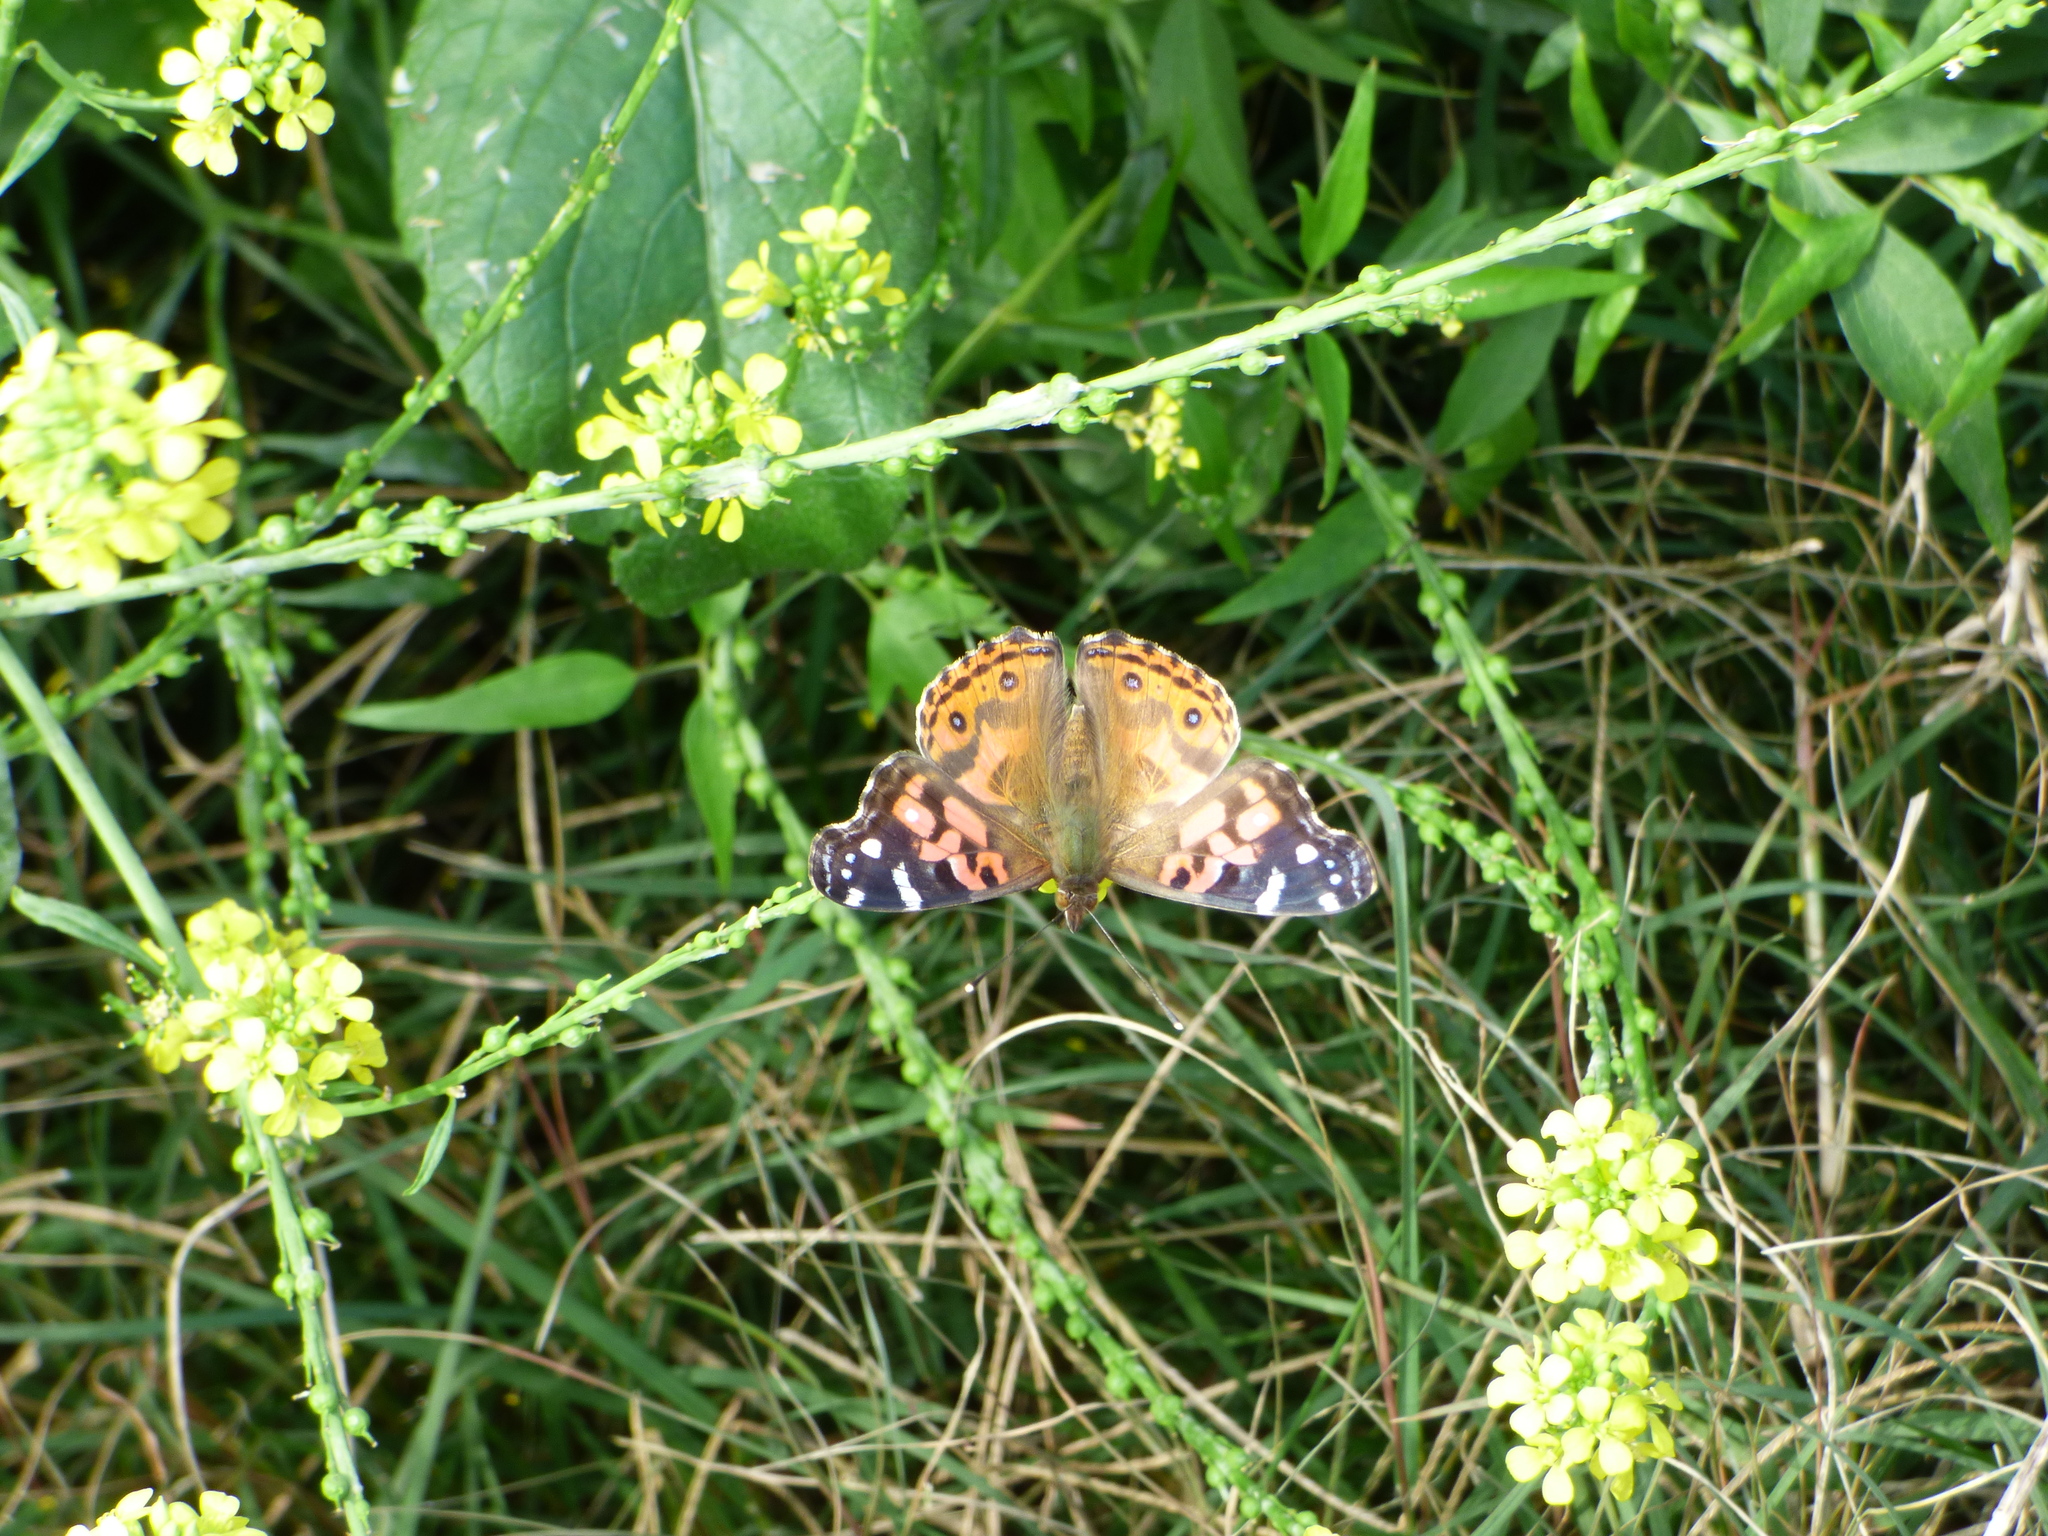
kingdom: Animalia
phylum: Arthropoda
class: Insecta
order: Lepidoptera
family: Nymphalidae
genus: Vanessa
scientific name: Vanessa braziliensis
